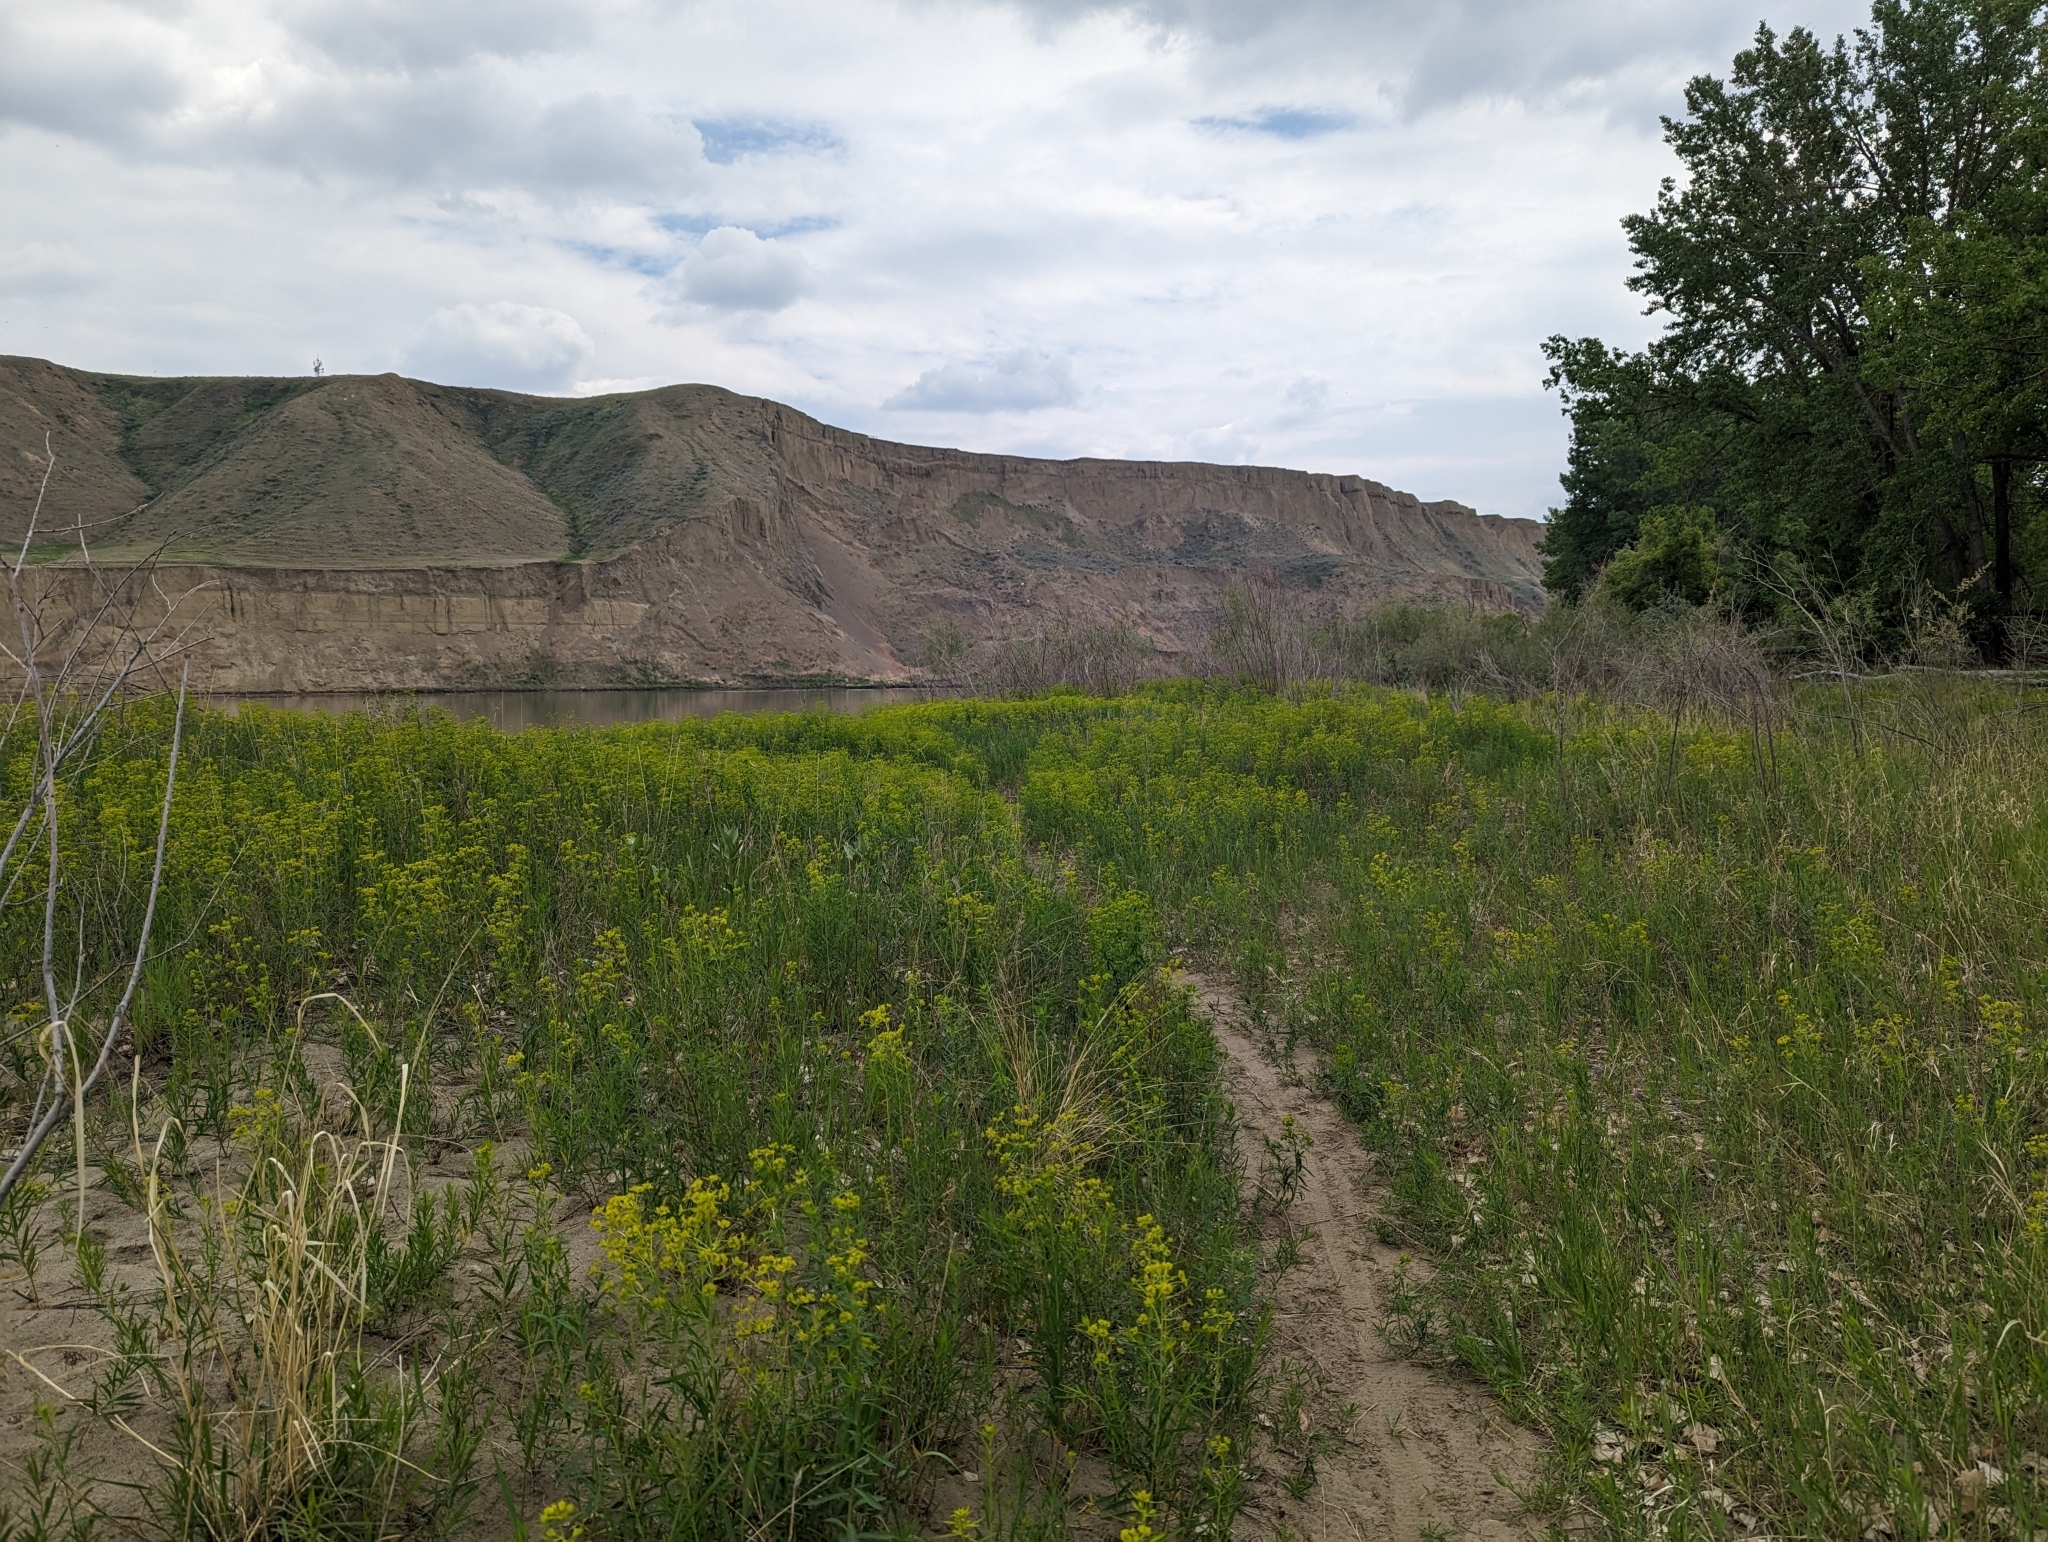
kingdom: Plantae
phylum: Tracheophyta
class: Magnoliopsida
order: Malpighiales
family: Euphorbiaceae
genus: Euphorbia
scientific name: Euphorbia virgata
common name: Leafy spurge
